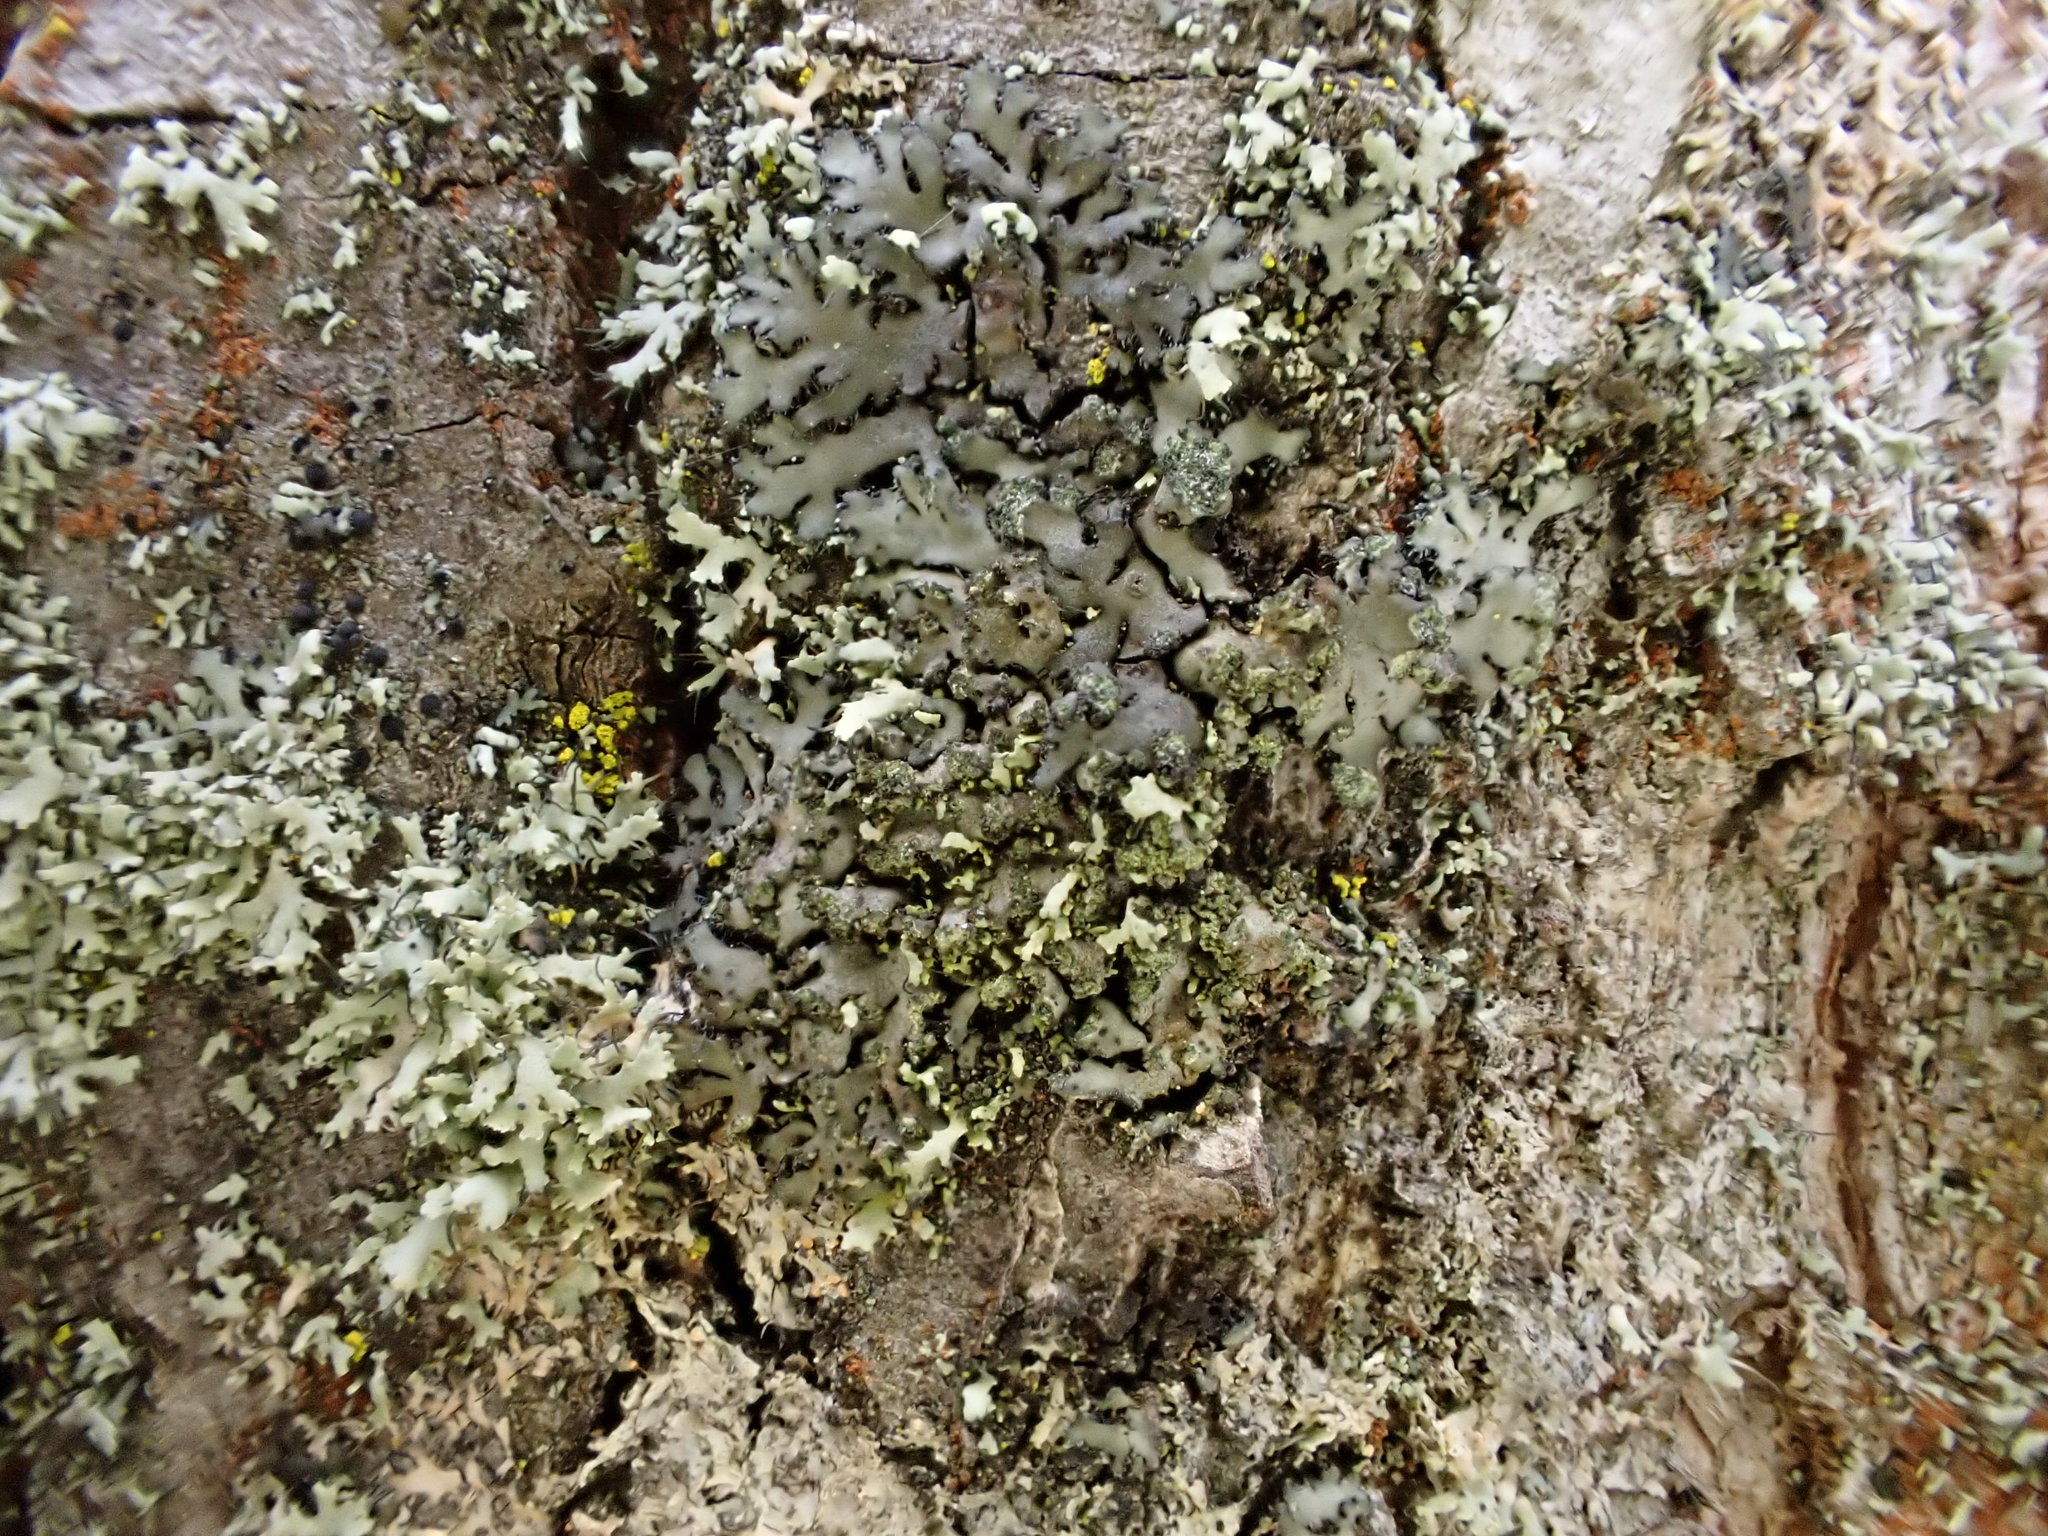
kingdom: Fungi
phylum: Ascomycota
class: Lecanoromycetes
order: Caliciales
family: Physciaceae
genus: Phaeophyscia
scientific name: Phaeophyscia orbicularis
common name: Mealy shadow lichen
